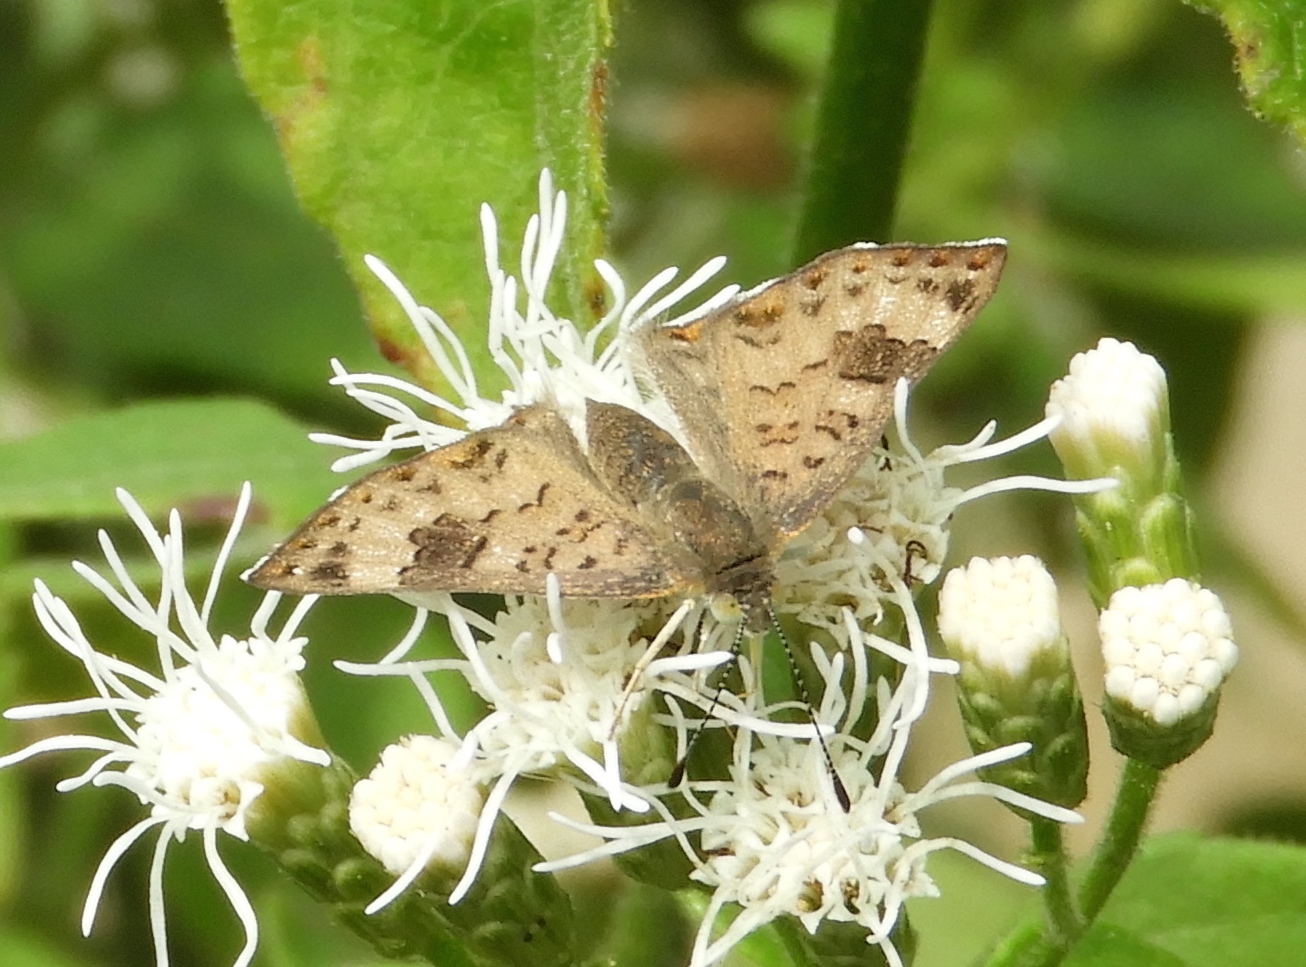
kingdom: Animalia
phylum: Arthropoda
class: Insecta
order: Hymenoptera
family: Braconidae
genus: Apodesmia
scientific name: Apodesmia
